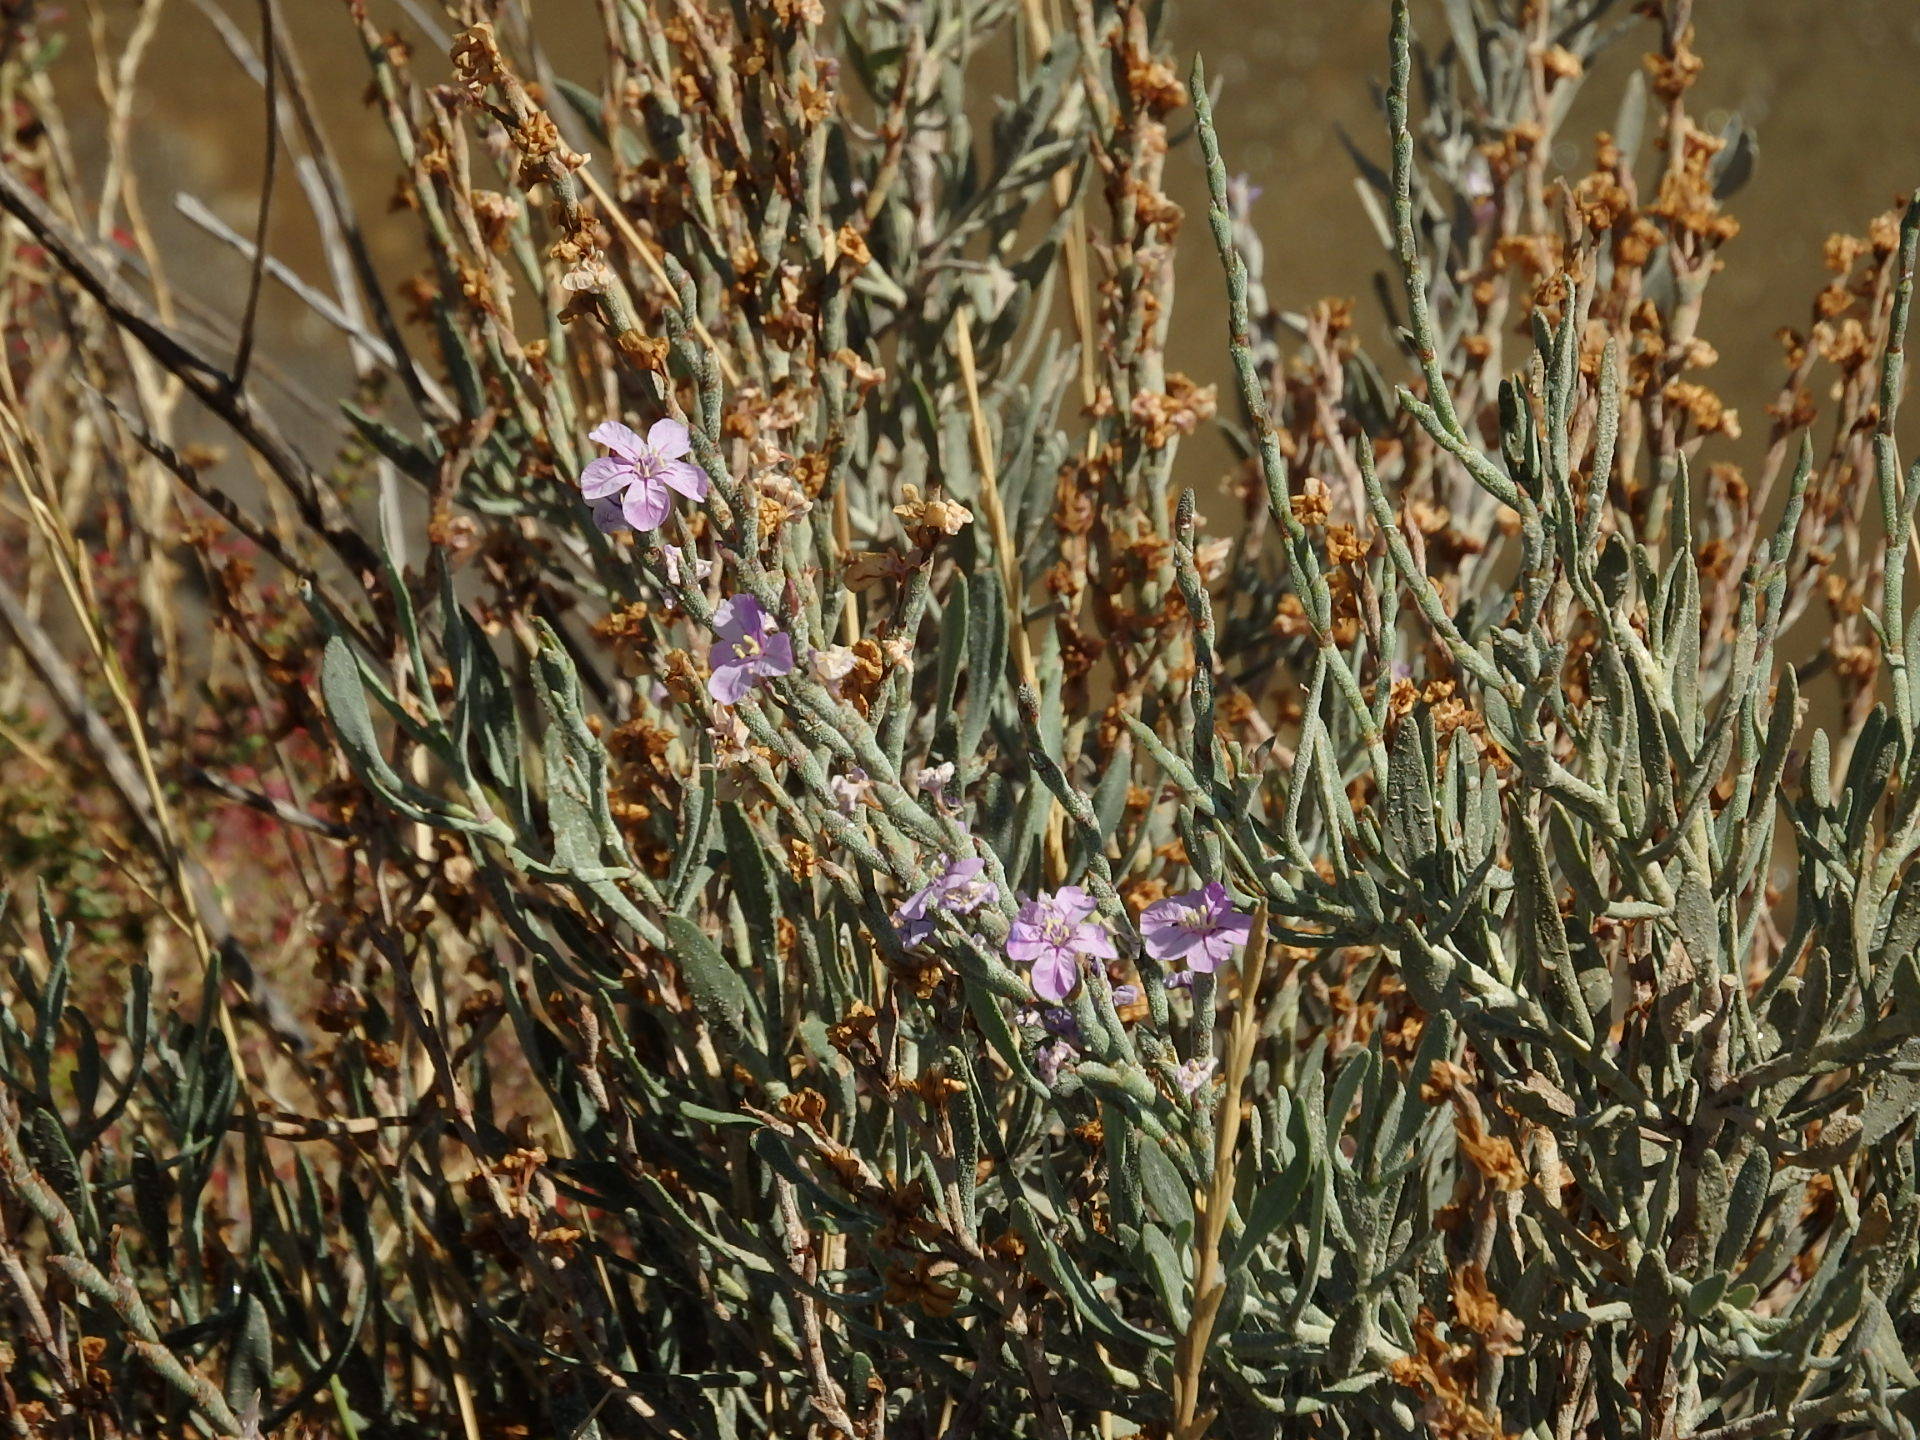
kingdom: Plantae
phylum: Tracheophyta
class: Magnoliopsida
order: Caryophyllales
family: Plumbaginaceae
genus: Limoniastrum
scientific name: Limoniastrum monopetalum
